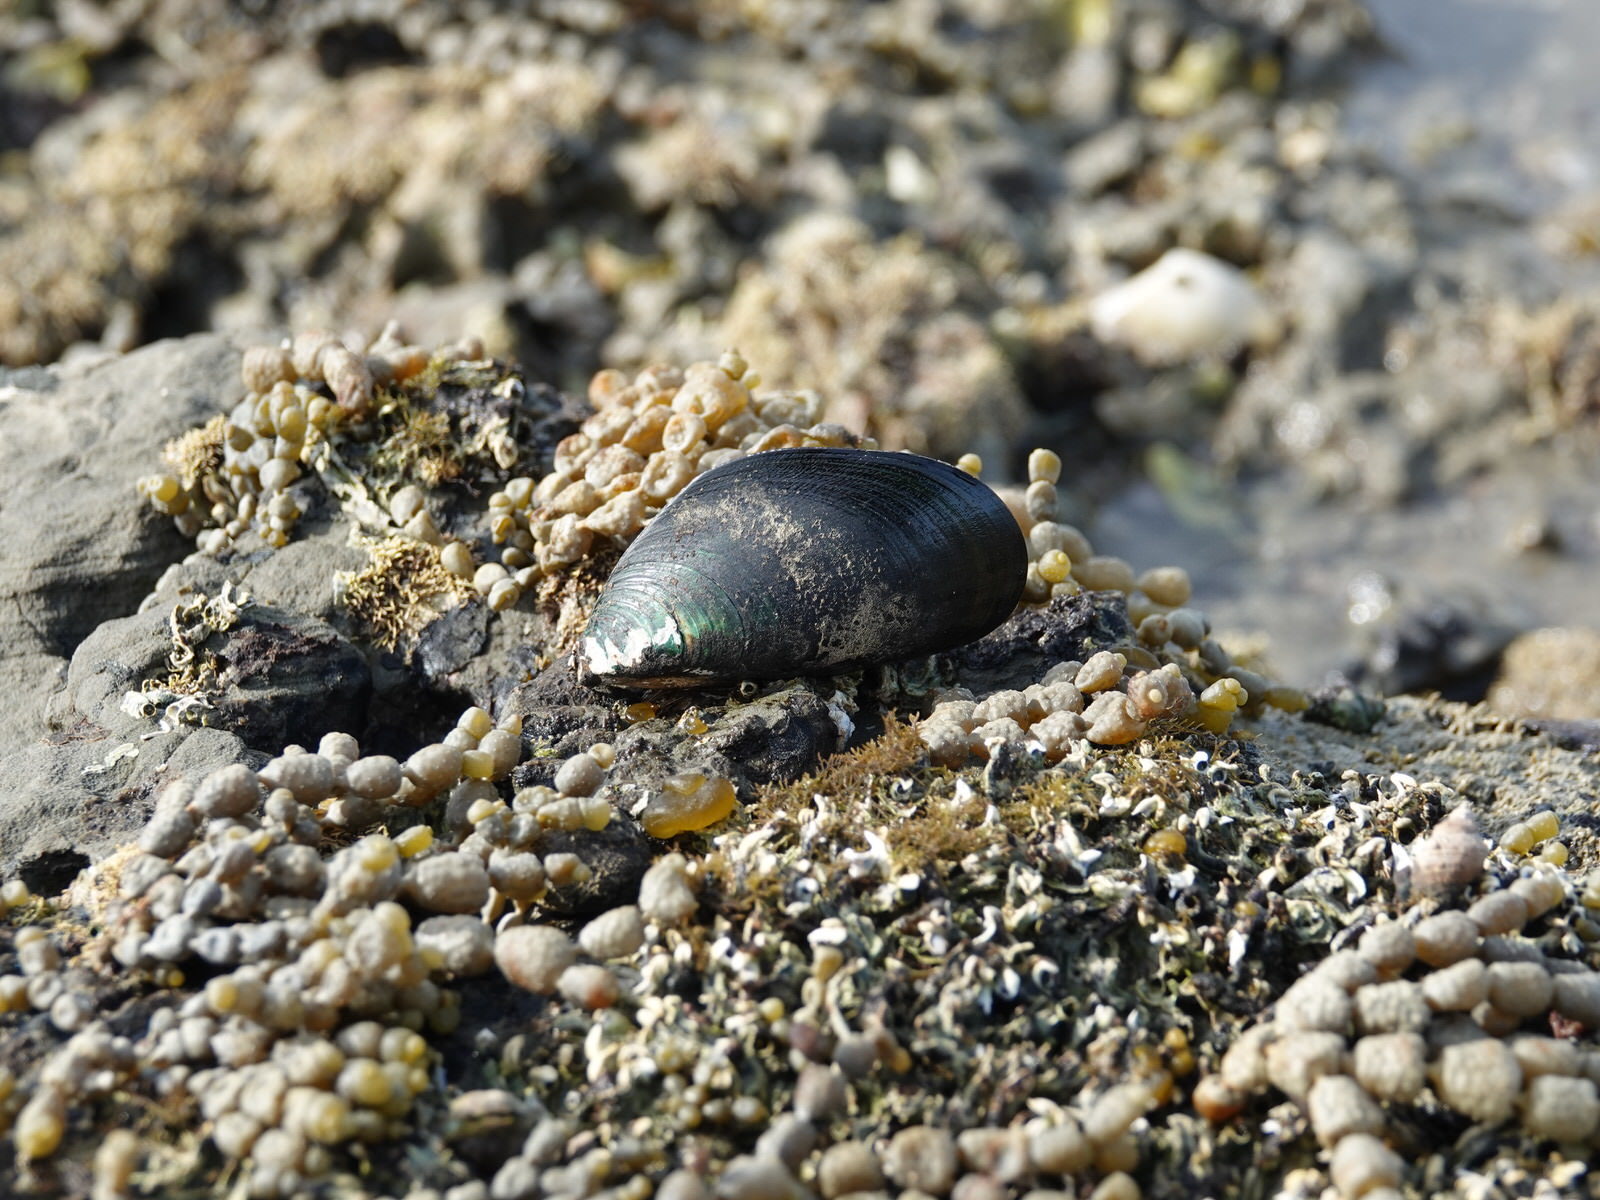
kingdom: Animalia
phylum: Mollusca
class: Bivalvia
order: Mytilida
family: Mytilidae
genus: Perna
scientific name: Perna canaliculus
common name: New zealand greenshelltm
